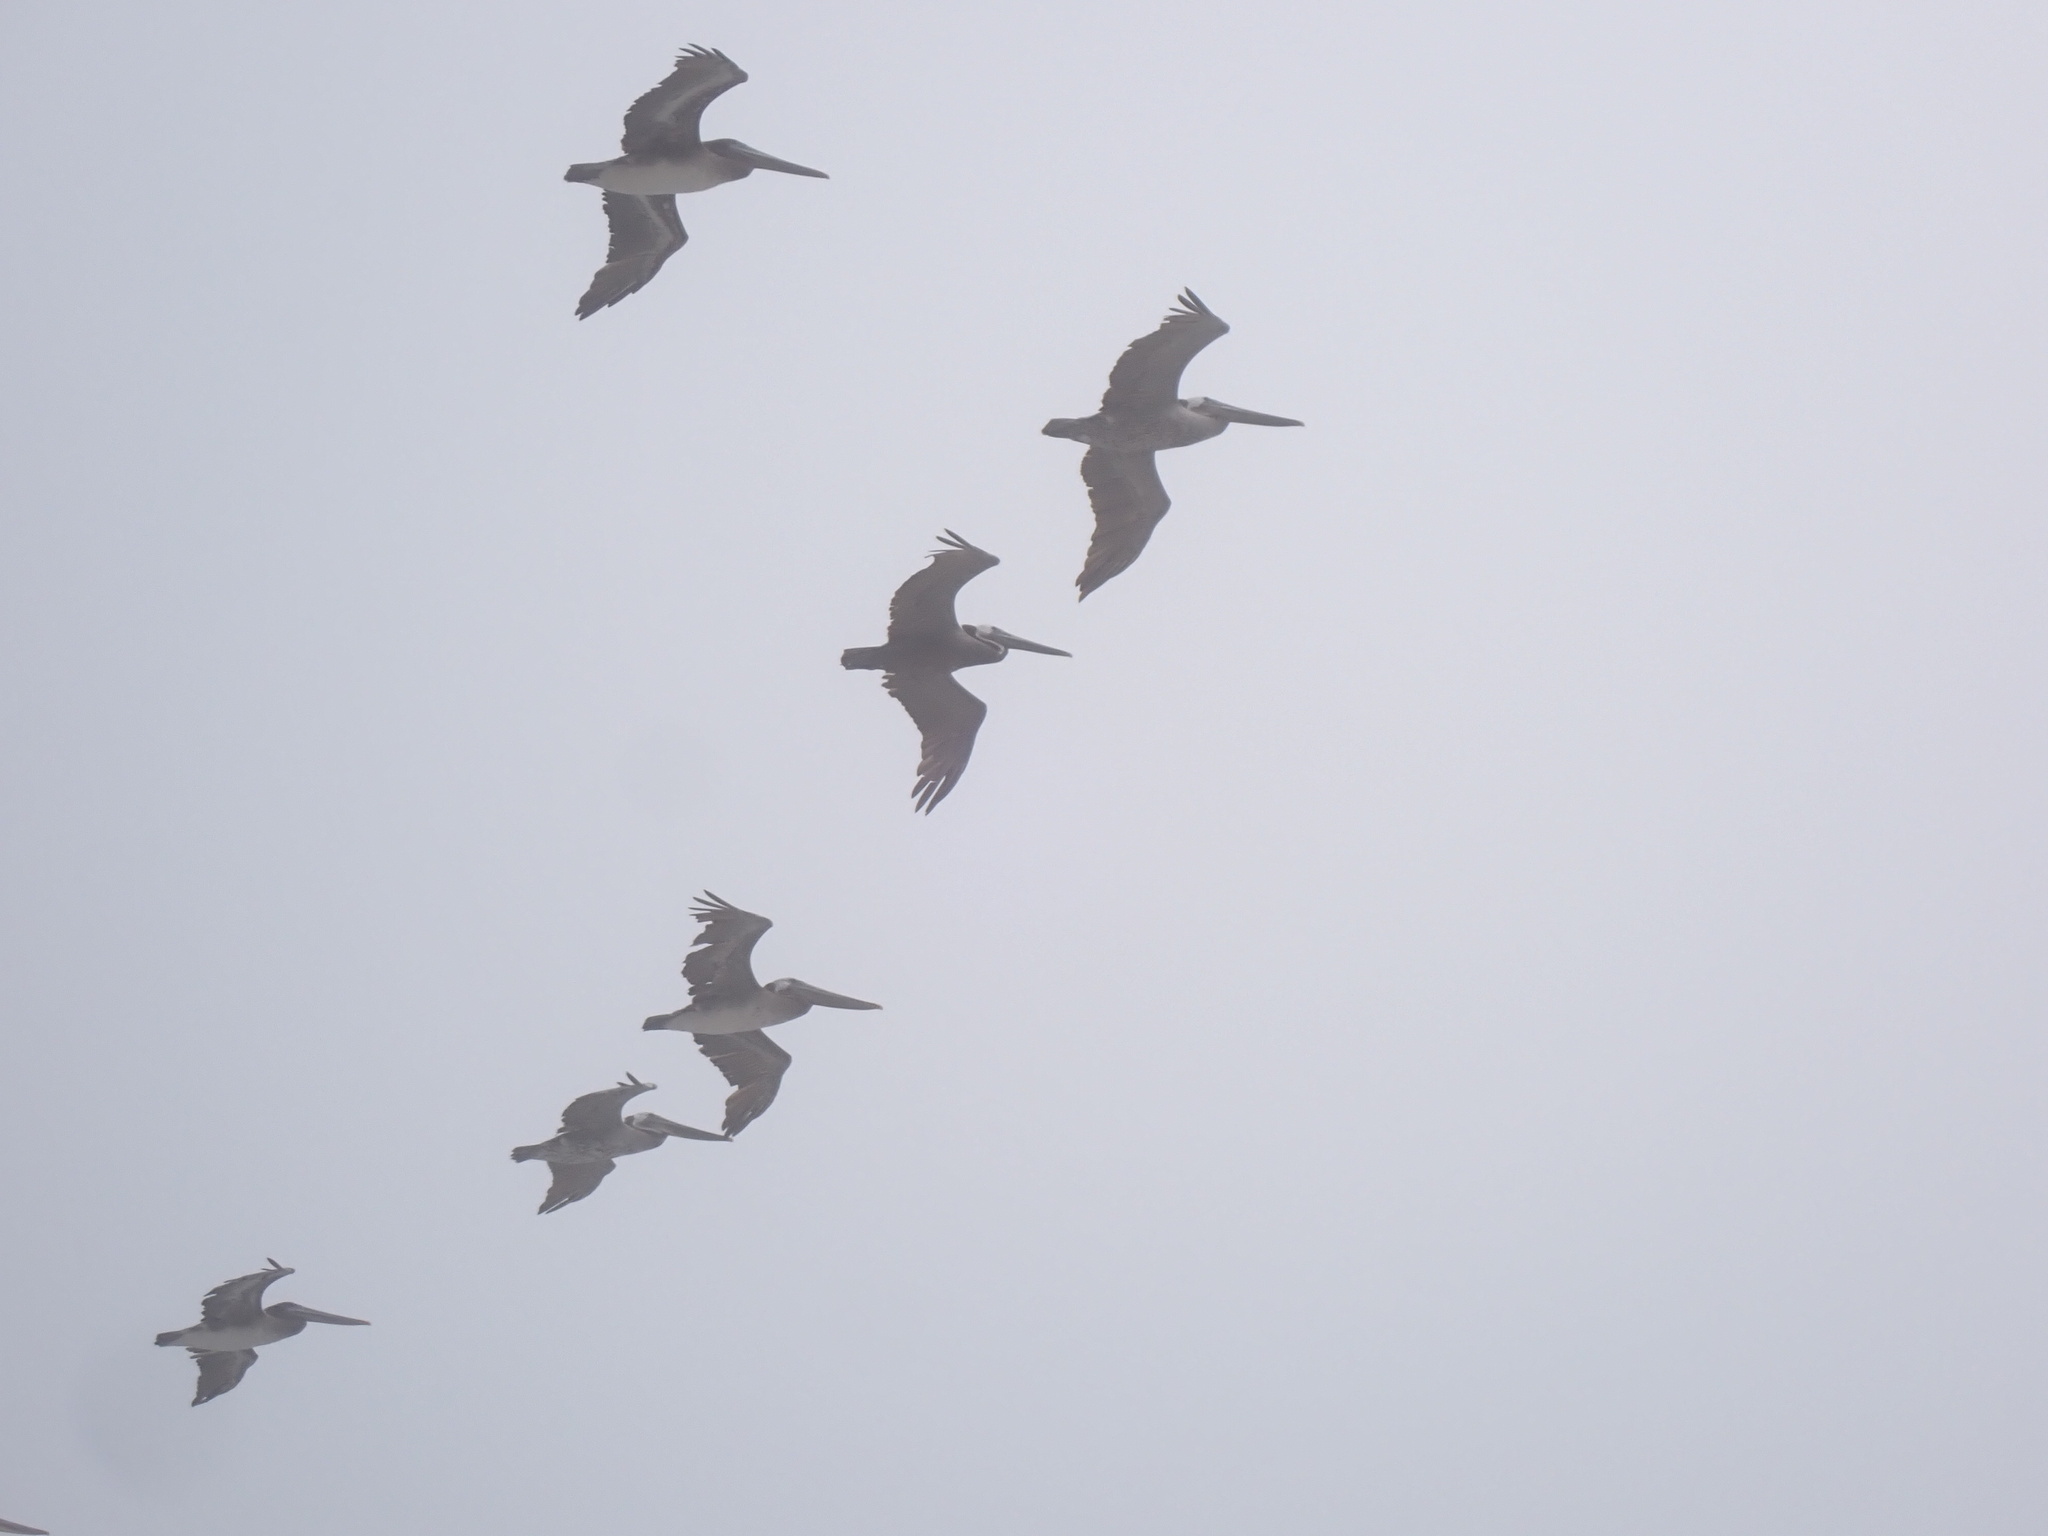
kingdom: Animalia
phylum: Chordata
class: Aves
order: Pelecaniformes
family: Pelecanidae
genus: Pelecanus
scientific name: Pelecanus occidentalis
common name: Brown pelican
